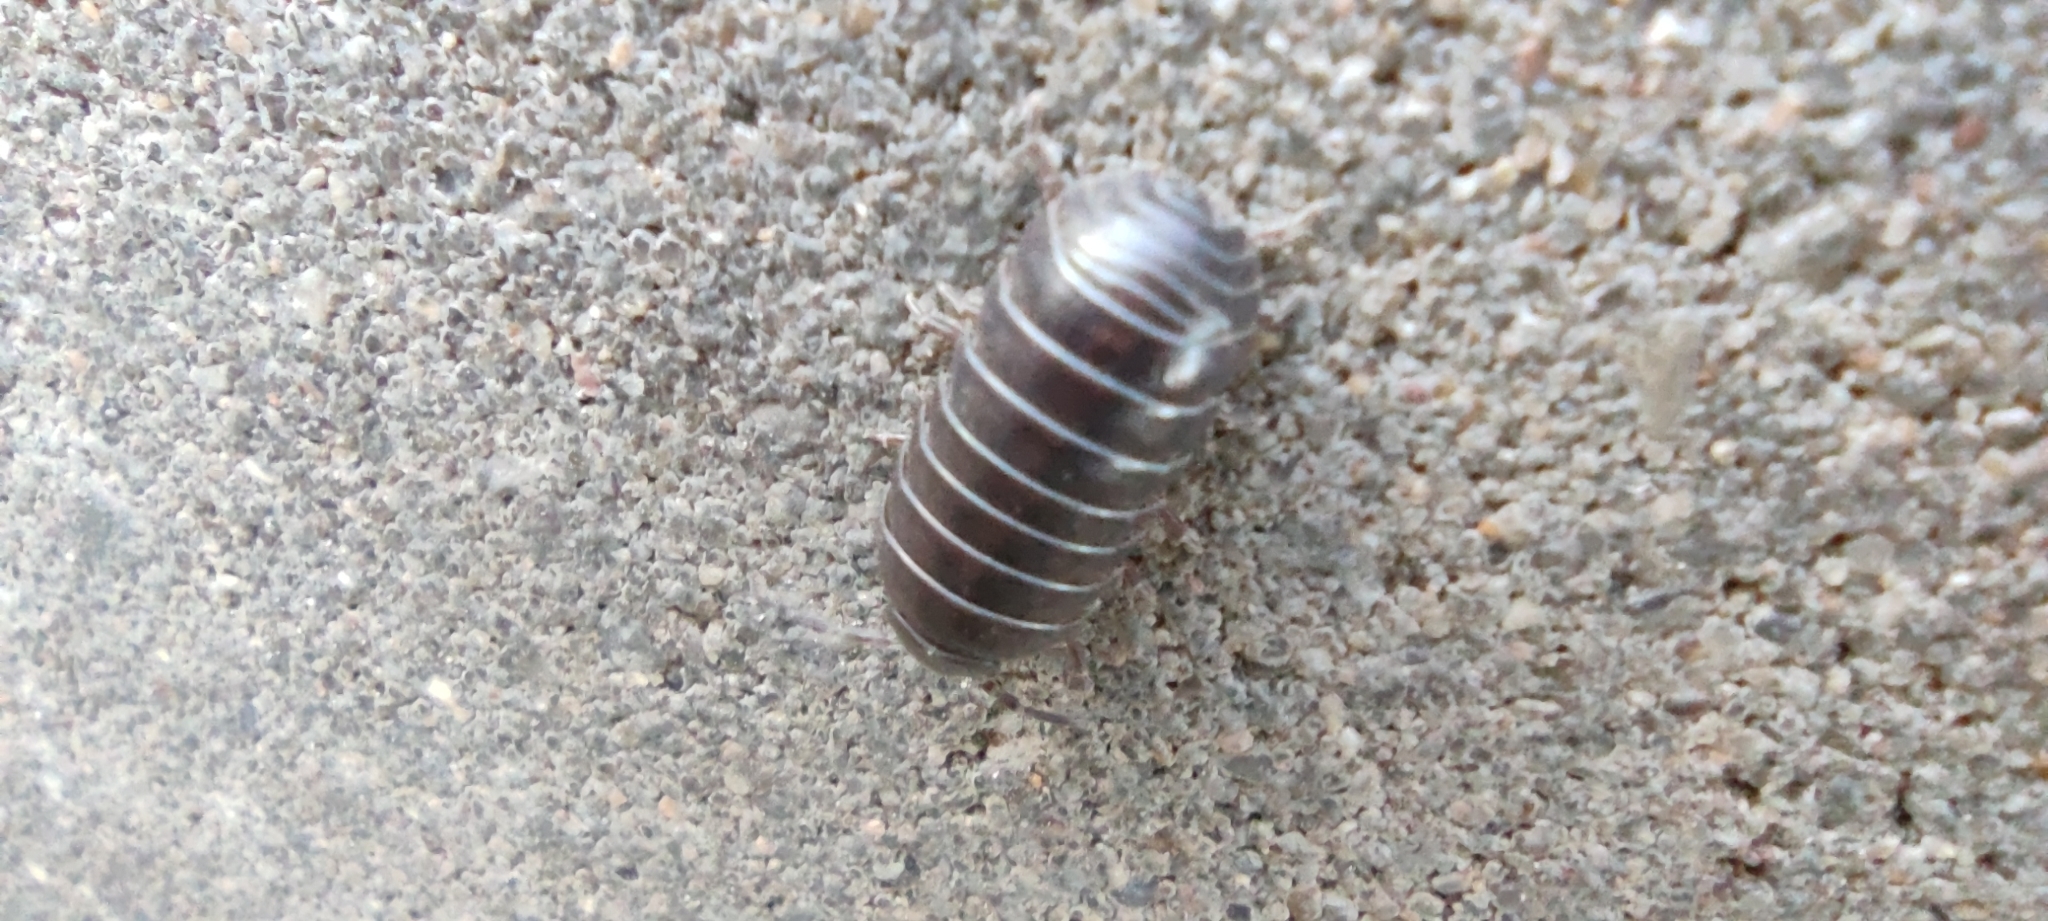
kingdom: Animalia
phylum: Arthropoda
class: Malacostraca
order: Isopoda
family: Armadillidiidae
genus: Armadillidium
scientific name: Armadillidium vulgare
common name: Common pill woodlouse
